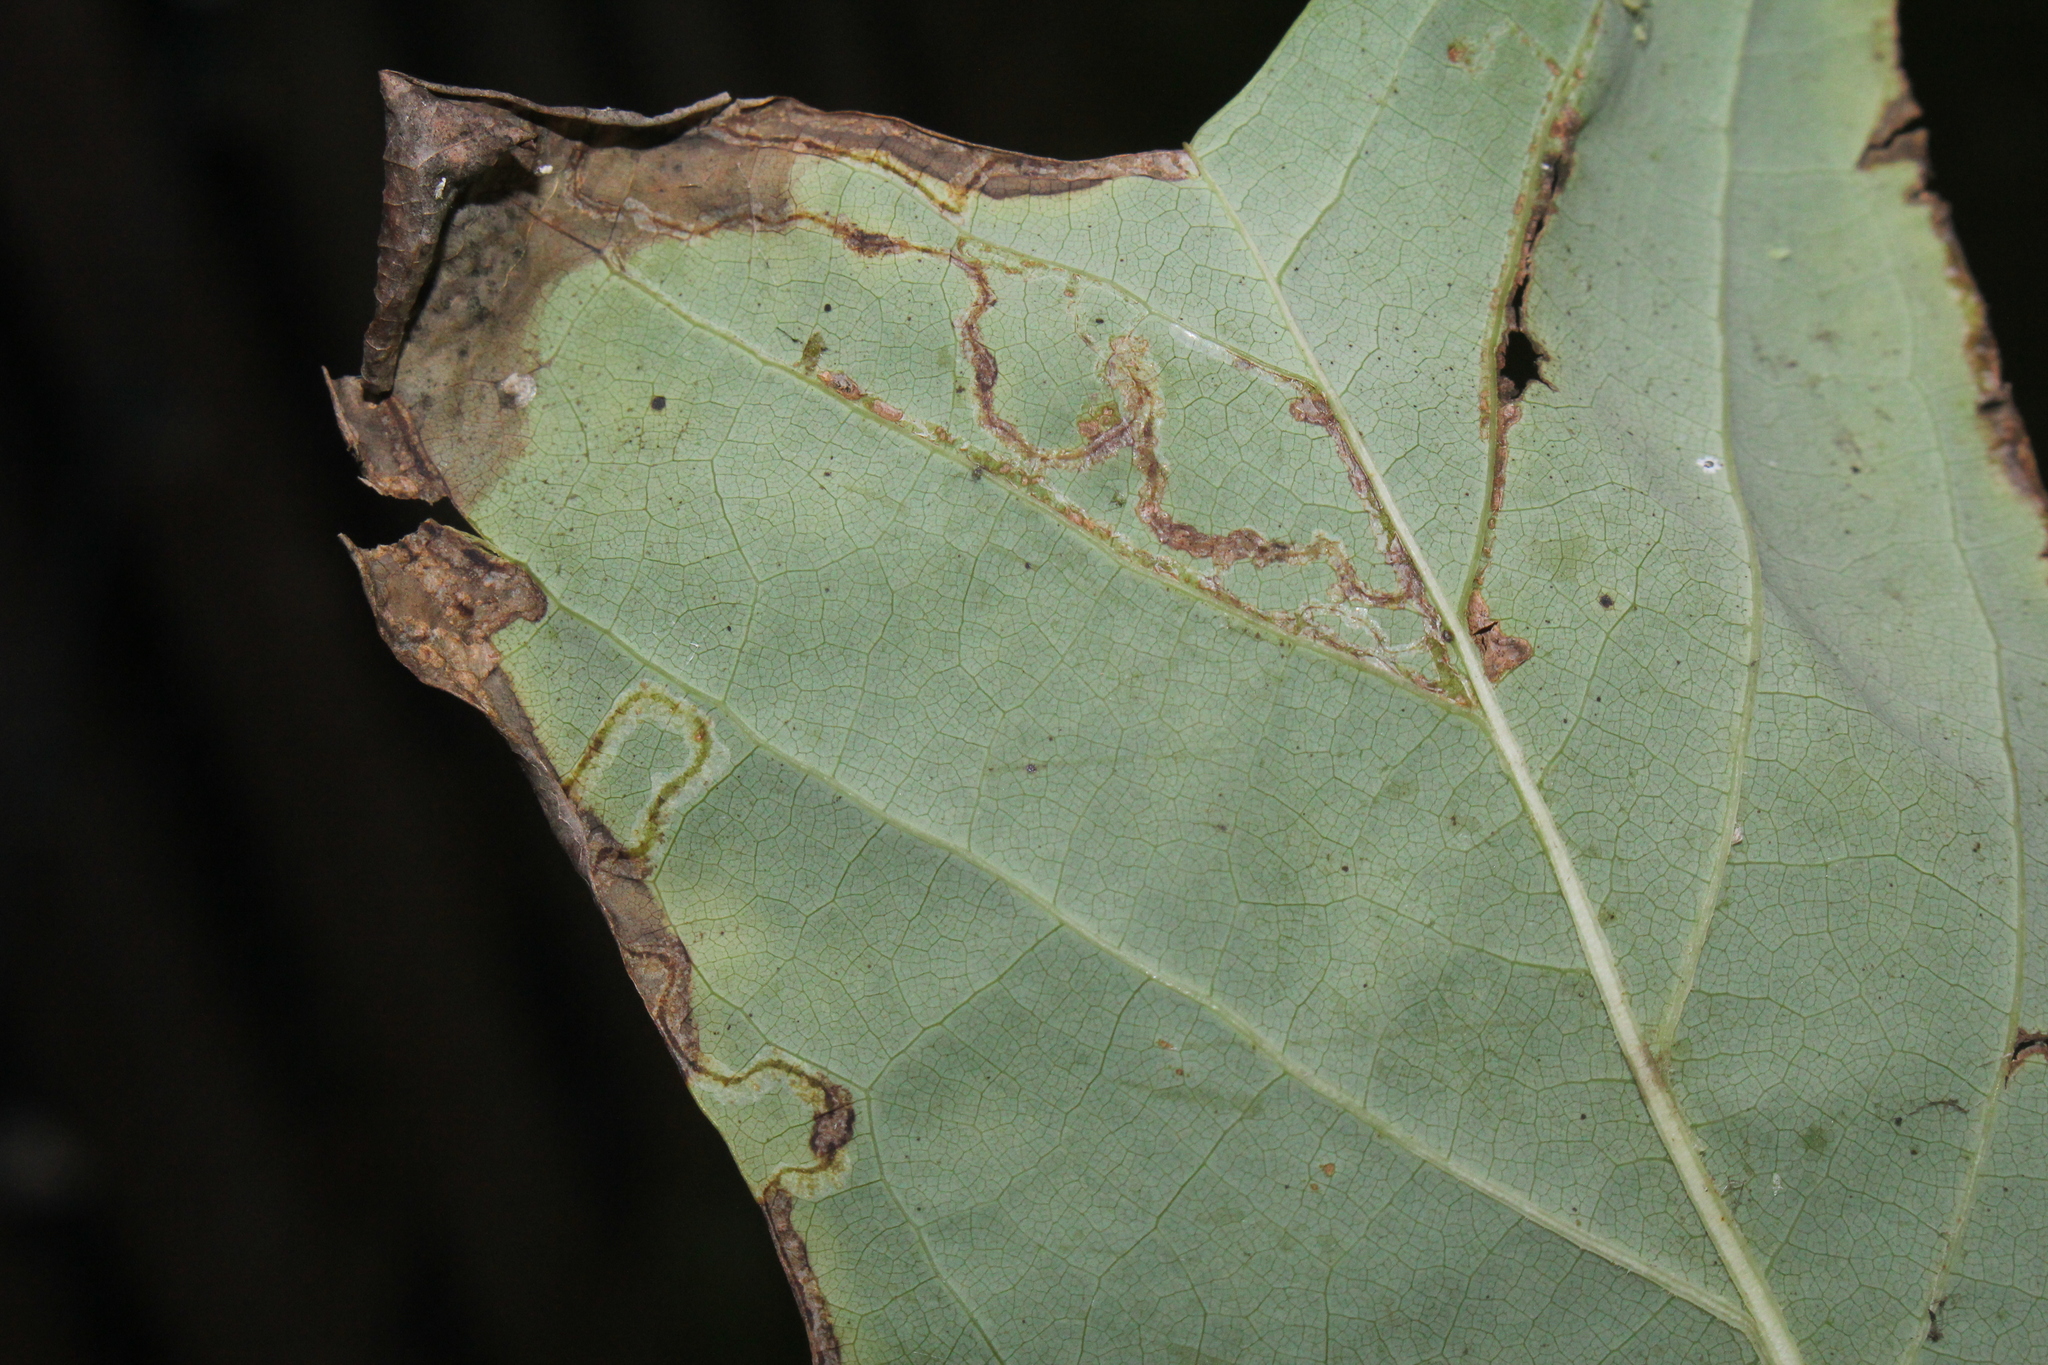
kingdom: Animalia
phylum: Arthropoda
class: Insecta
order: Lepidoptera
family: Gracillariidae
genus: Phyllocnistis
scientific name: Phyllocnistis liriodendronella
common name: Tulip tree leaf miner
